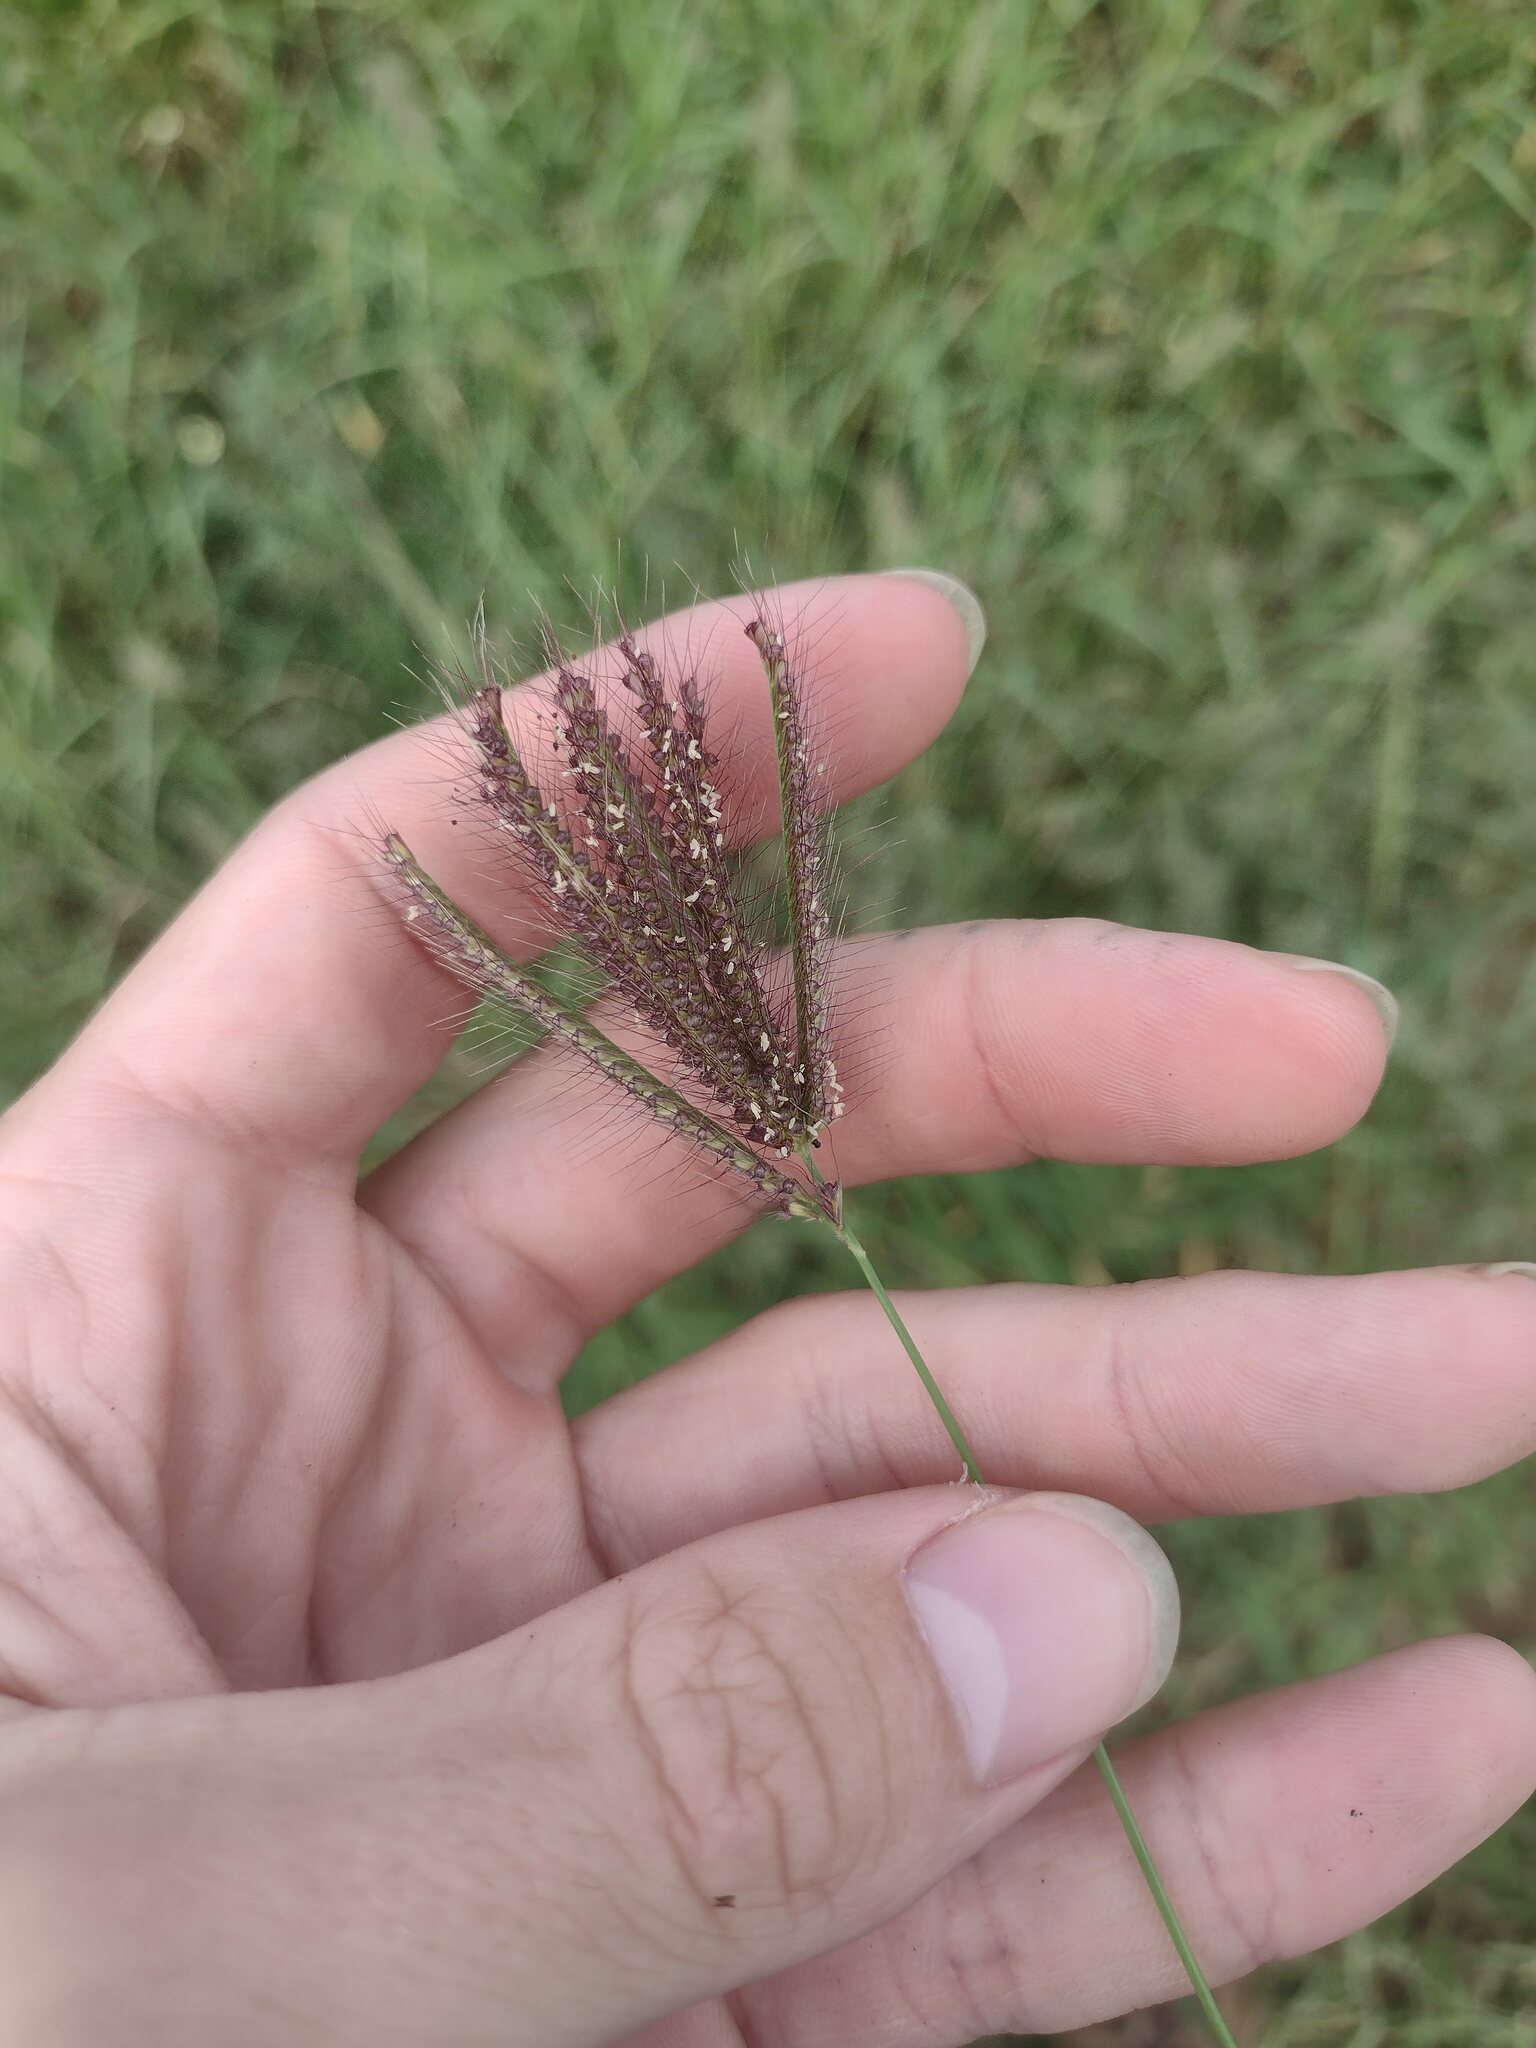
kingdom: Plantae
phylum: Tracheophyta
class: Liliopsida
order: Poales
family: Poaceae
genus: Chloris
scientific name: Chloris barbata
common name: Swollen fingergrass
